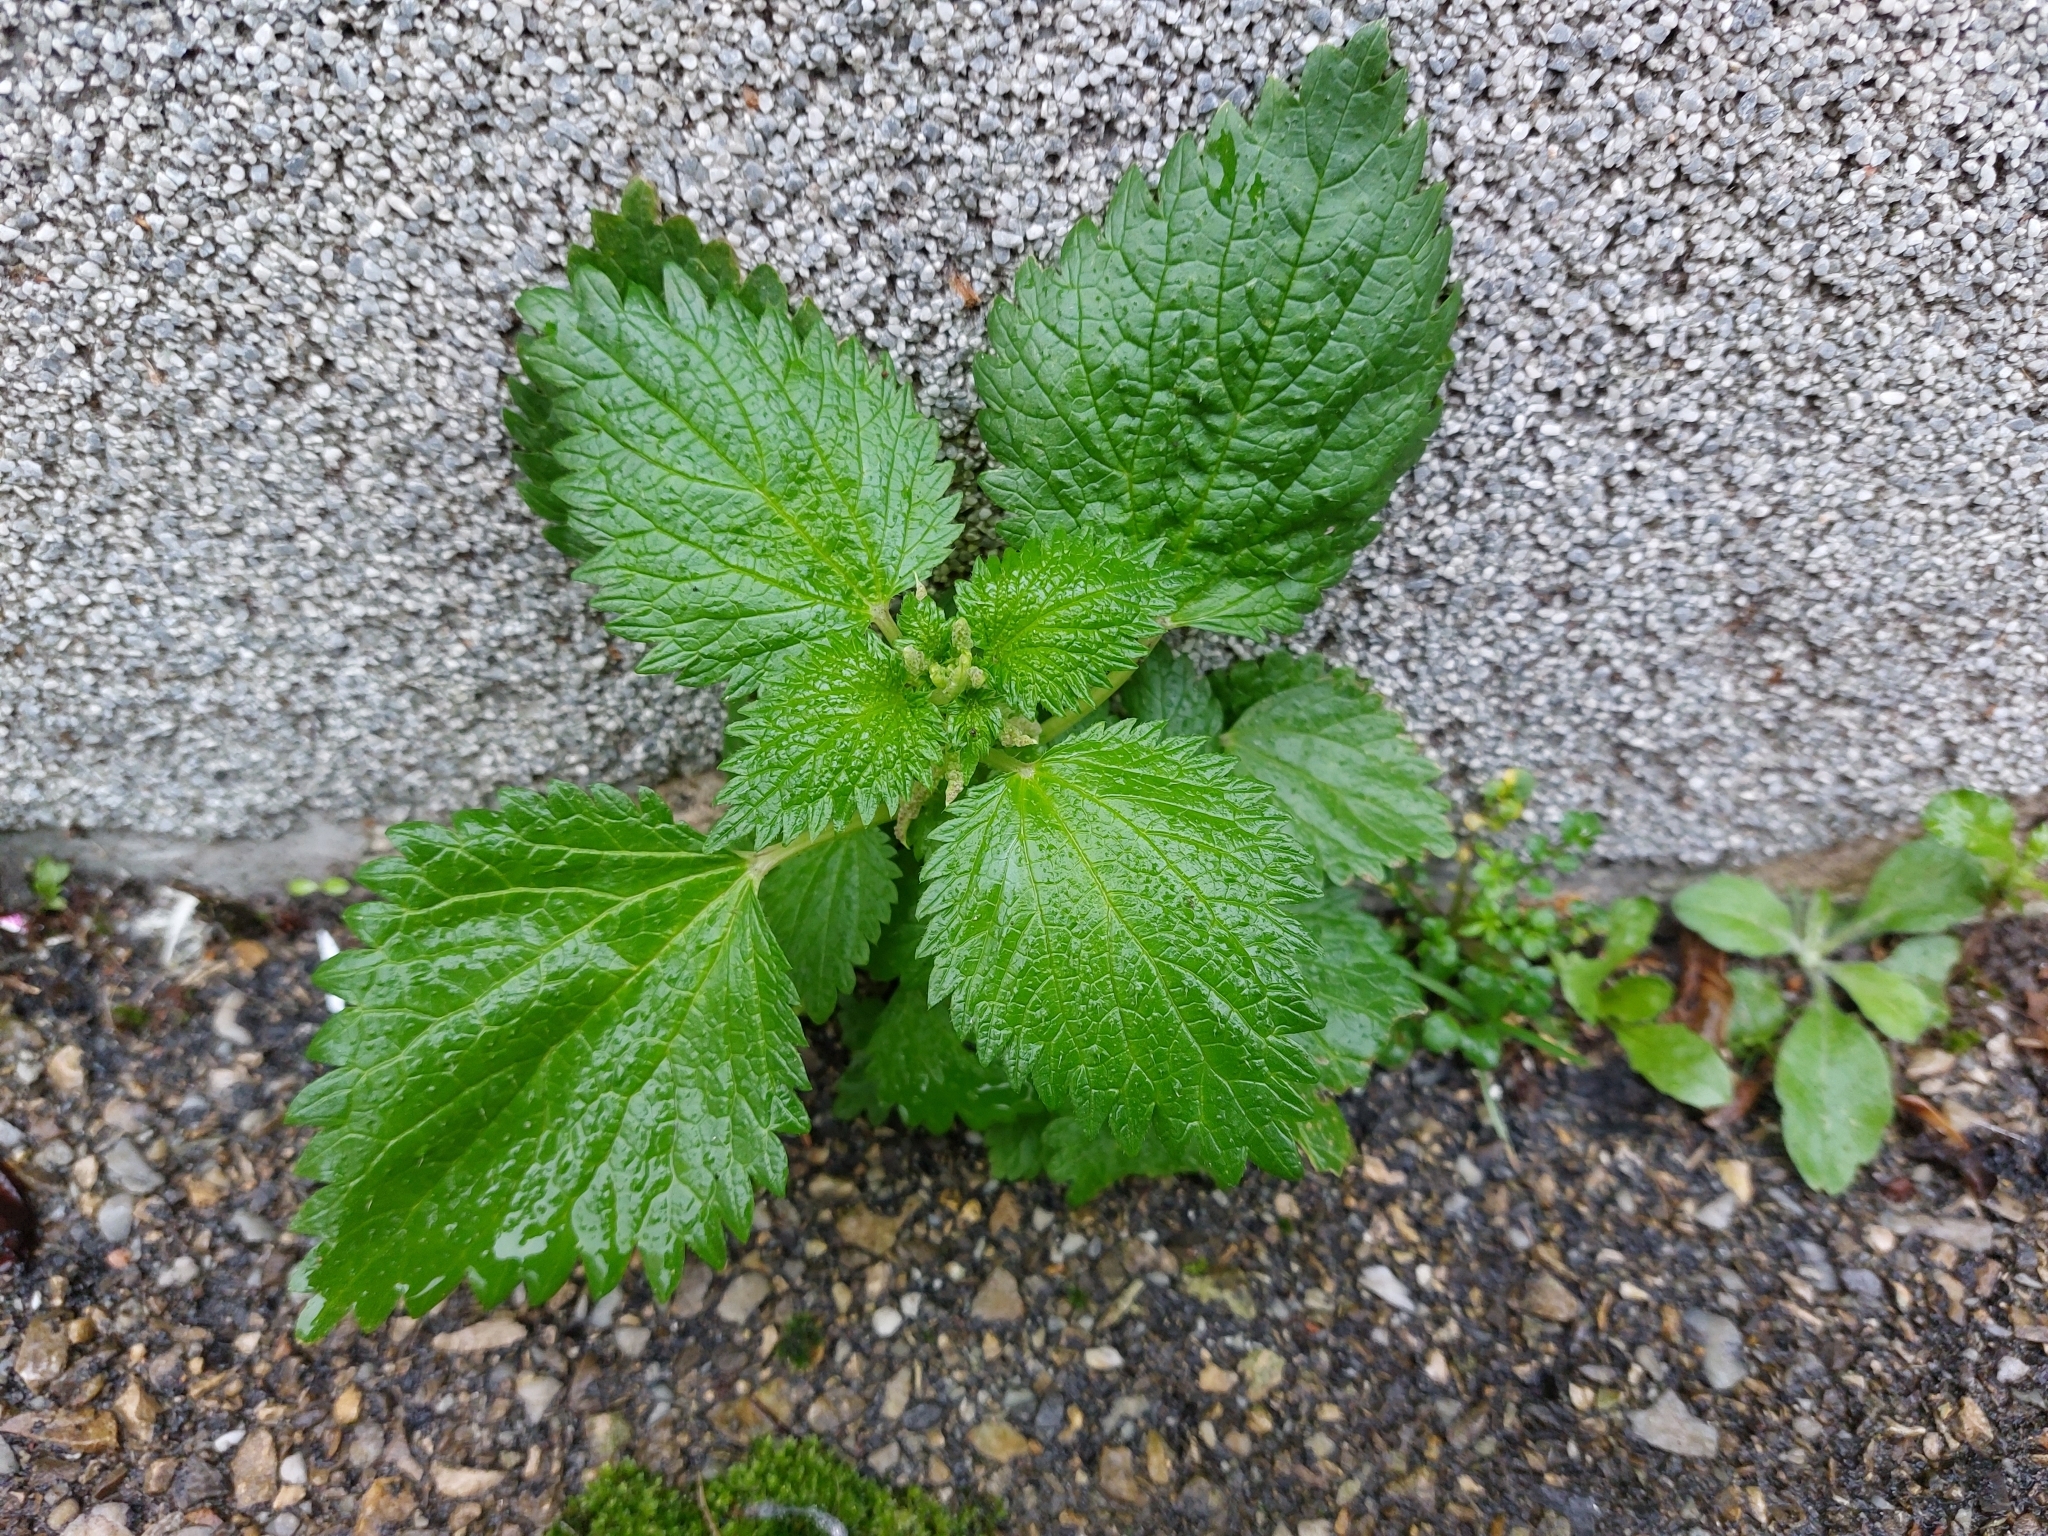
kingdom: Plantae
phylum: Tracheophyta
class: Magnoliopsida
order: Rosales
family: Urticaceae
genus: Urtica
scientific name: Urtica dioica
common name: Common nettle
